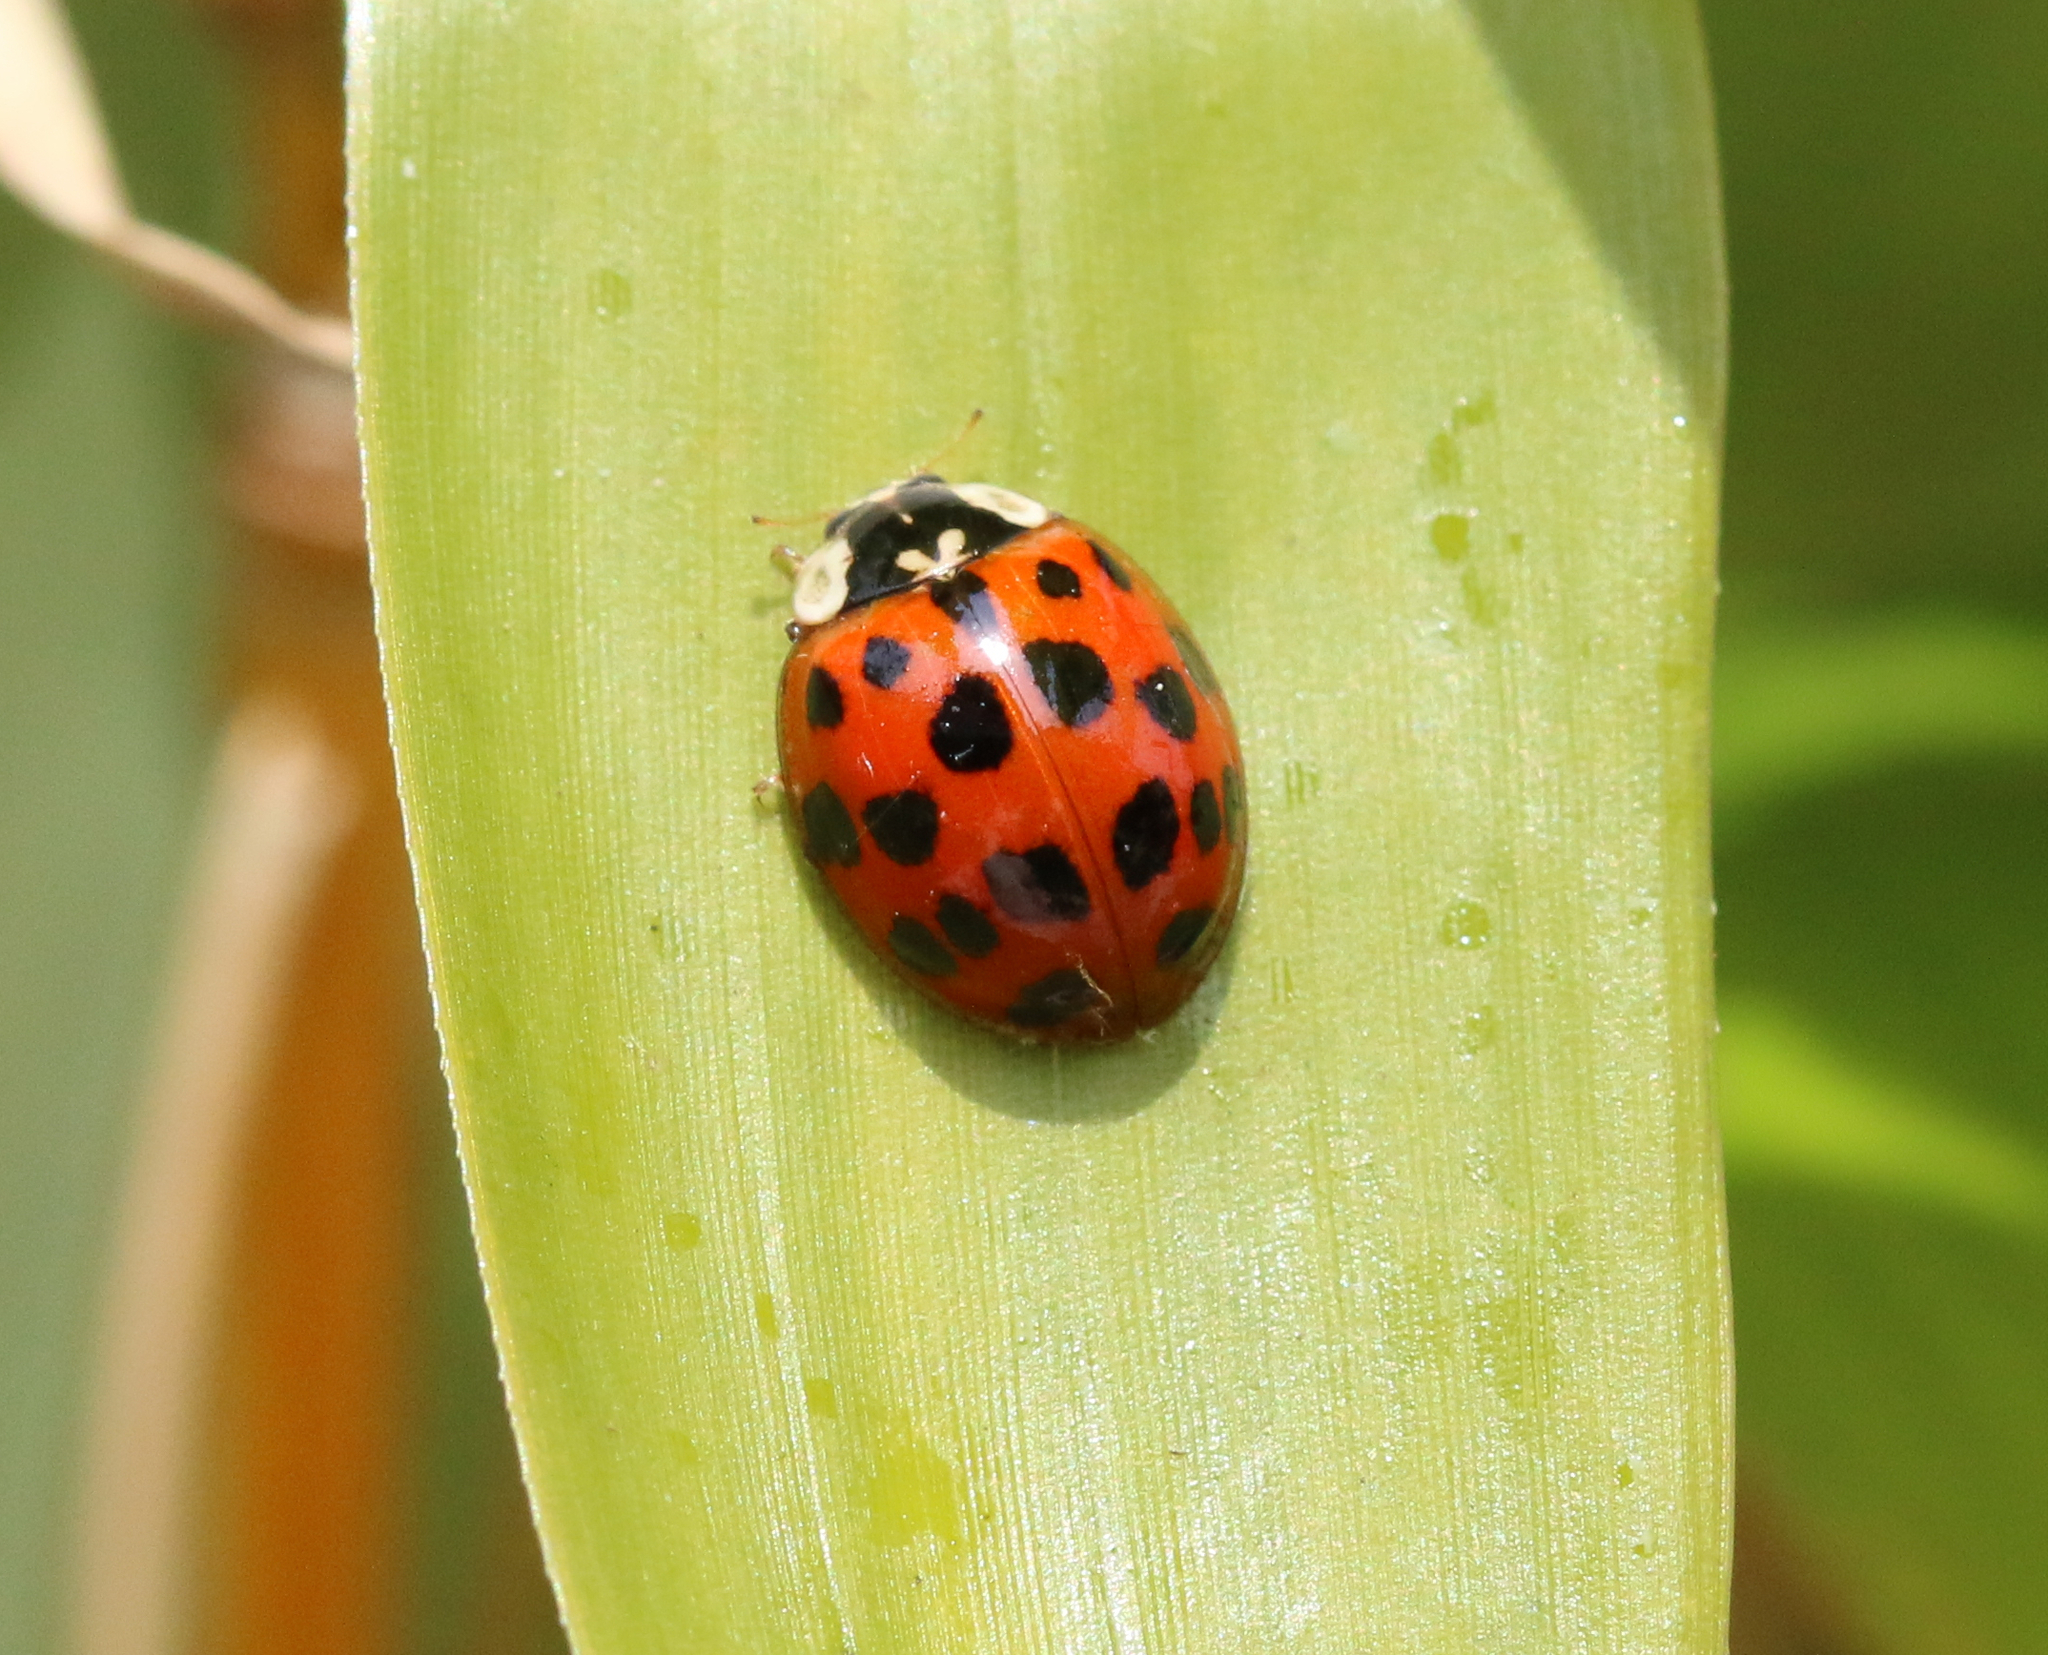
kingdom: Animalia
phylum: Arthropoda
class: Insecta
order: Coleoptera
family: Coccinellidae
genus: Harmonia
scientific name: Harmonia axyridis
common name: Harlequin ladybird
